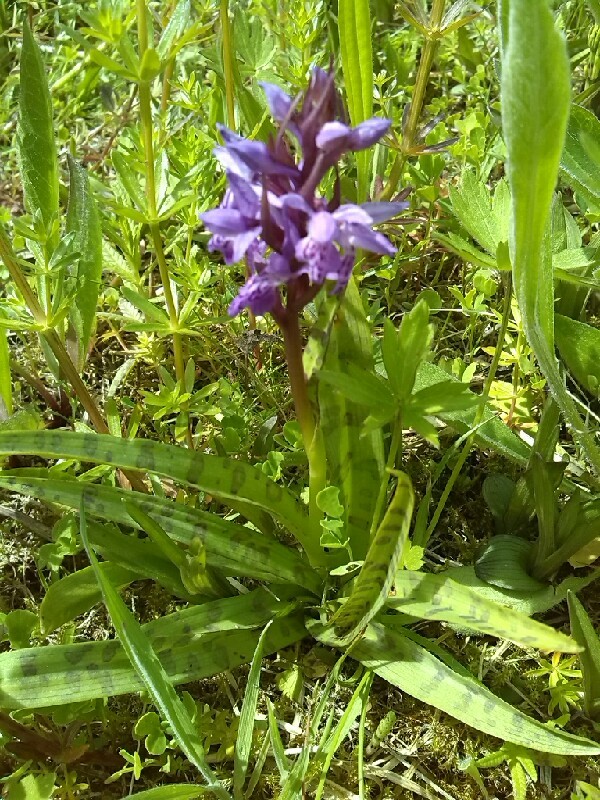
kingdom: Plantae
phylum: Tracheophyta
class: Liliopsida
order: Asparagales
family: Orchidaceae
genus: Dactylorhiza
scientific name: Dactylorhiza majalis
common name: Marsh orchid
